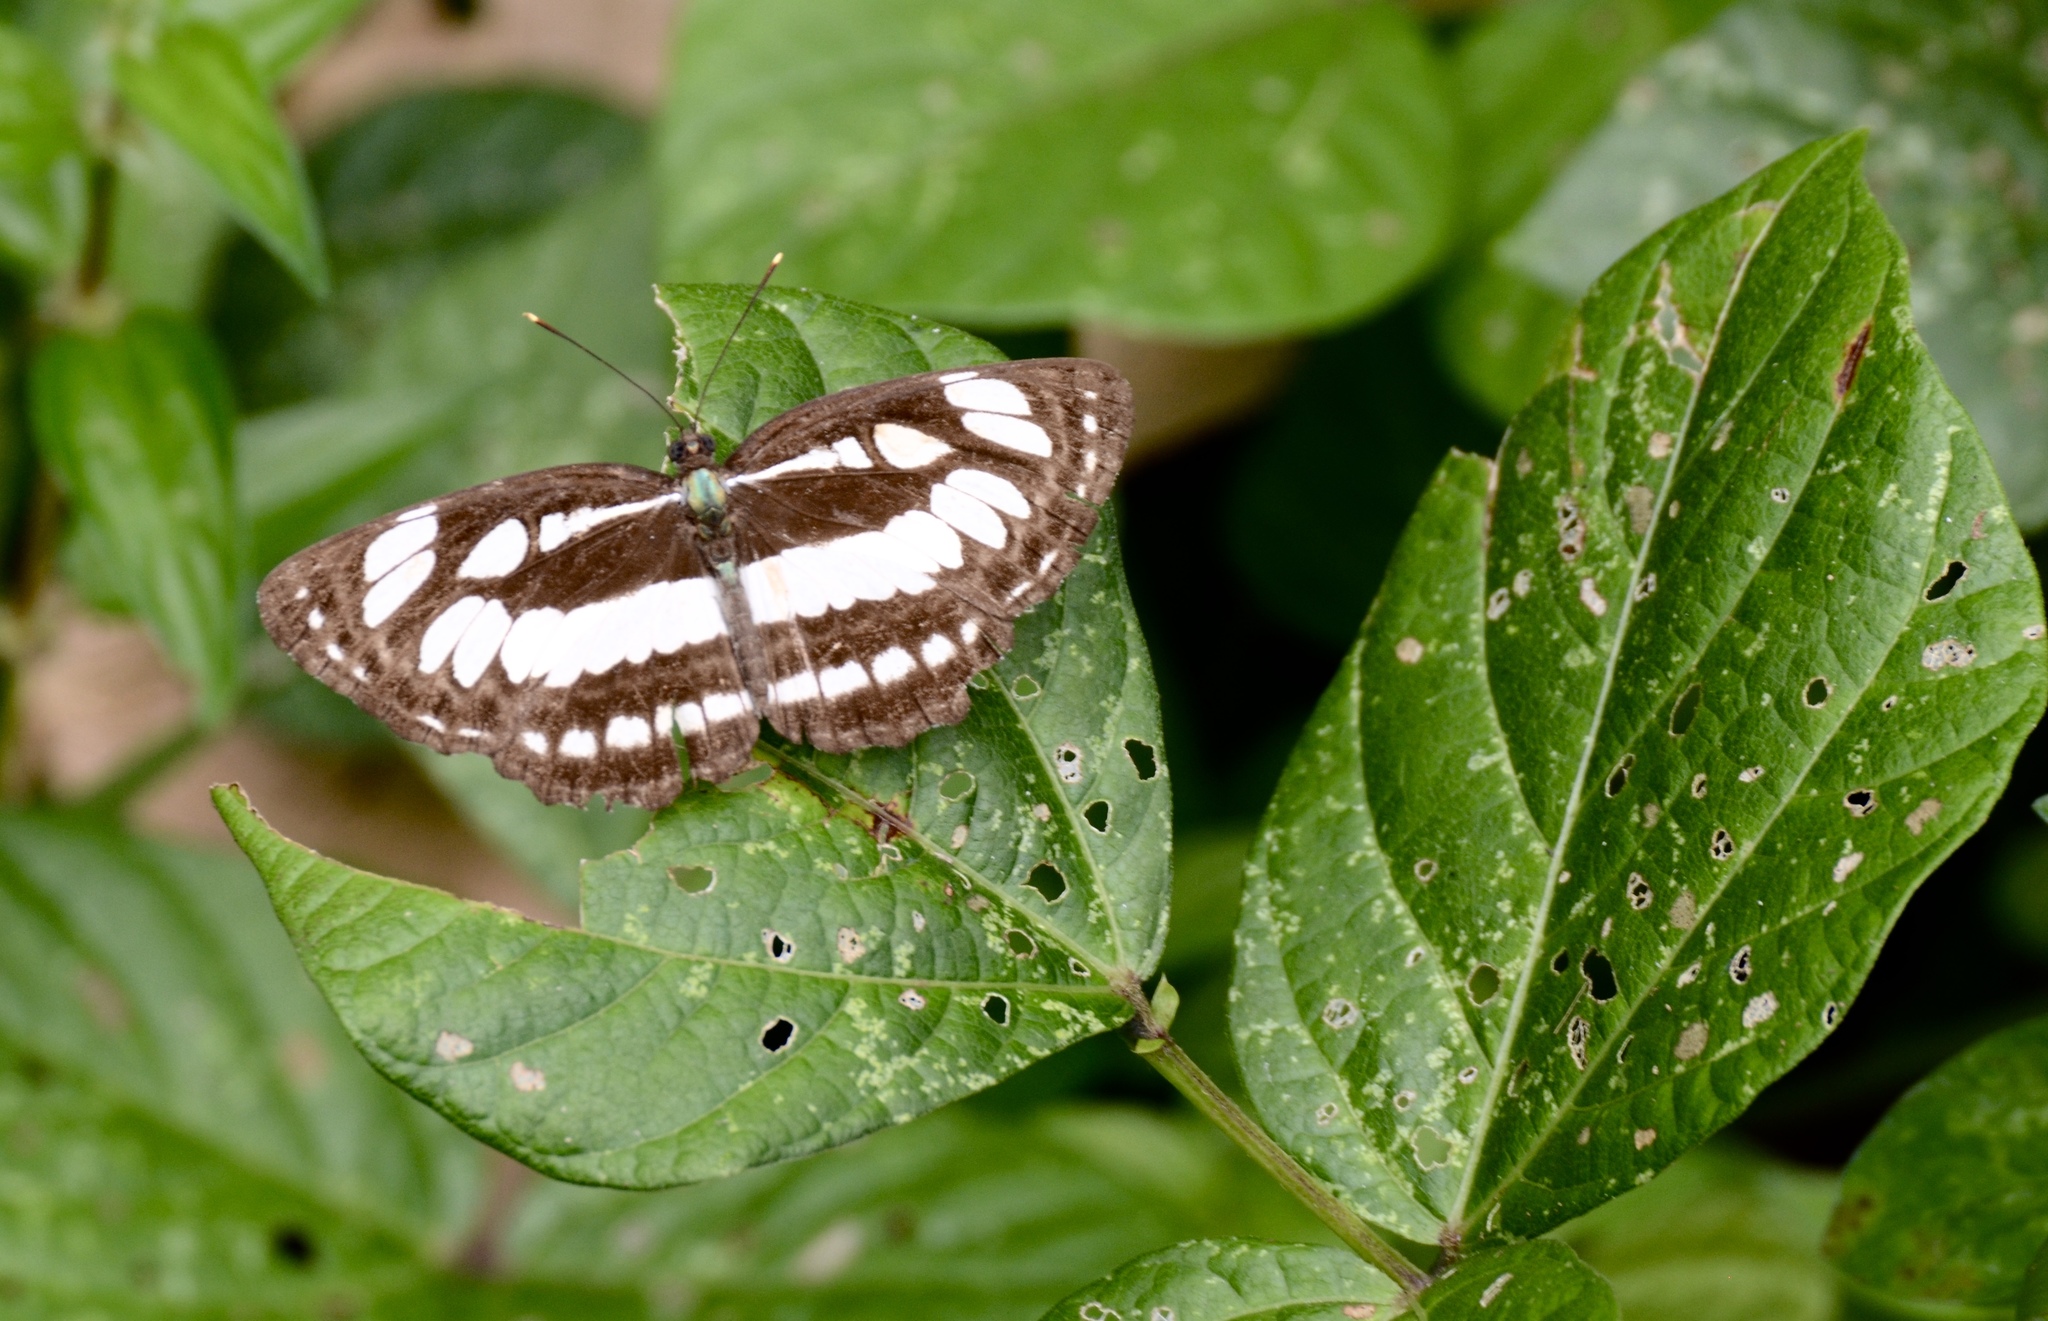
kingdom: Animalia
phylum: Arthropoda
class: Insecta
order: Lepidoptera
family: Nymphalidae
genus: Neptis
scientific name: Neptis hylas
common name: Common sailer
